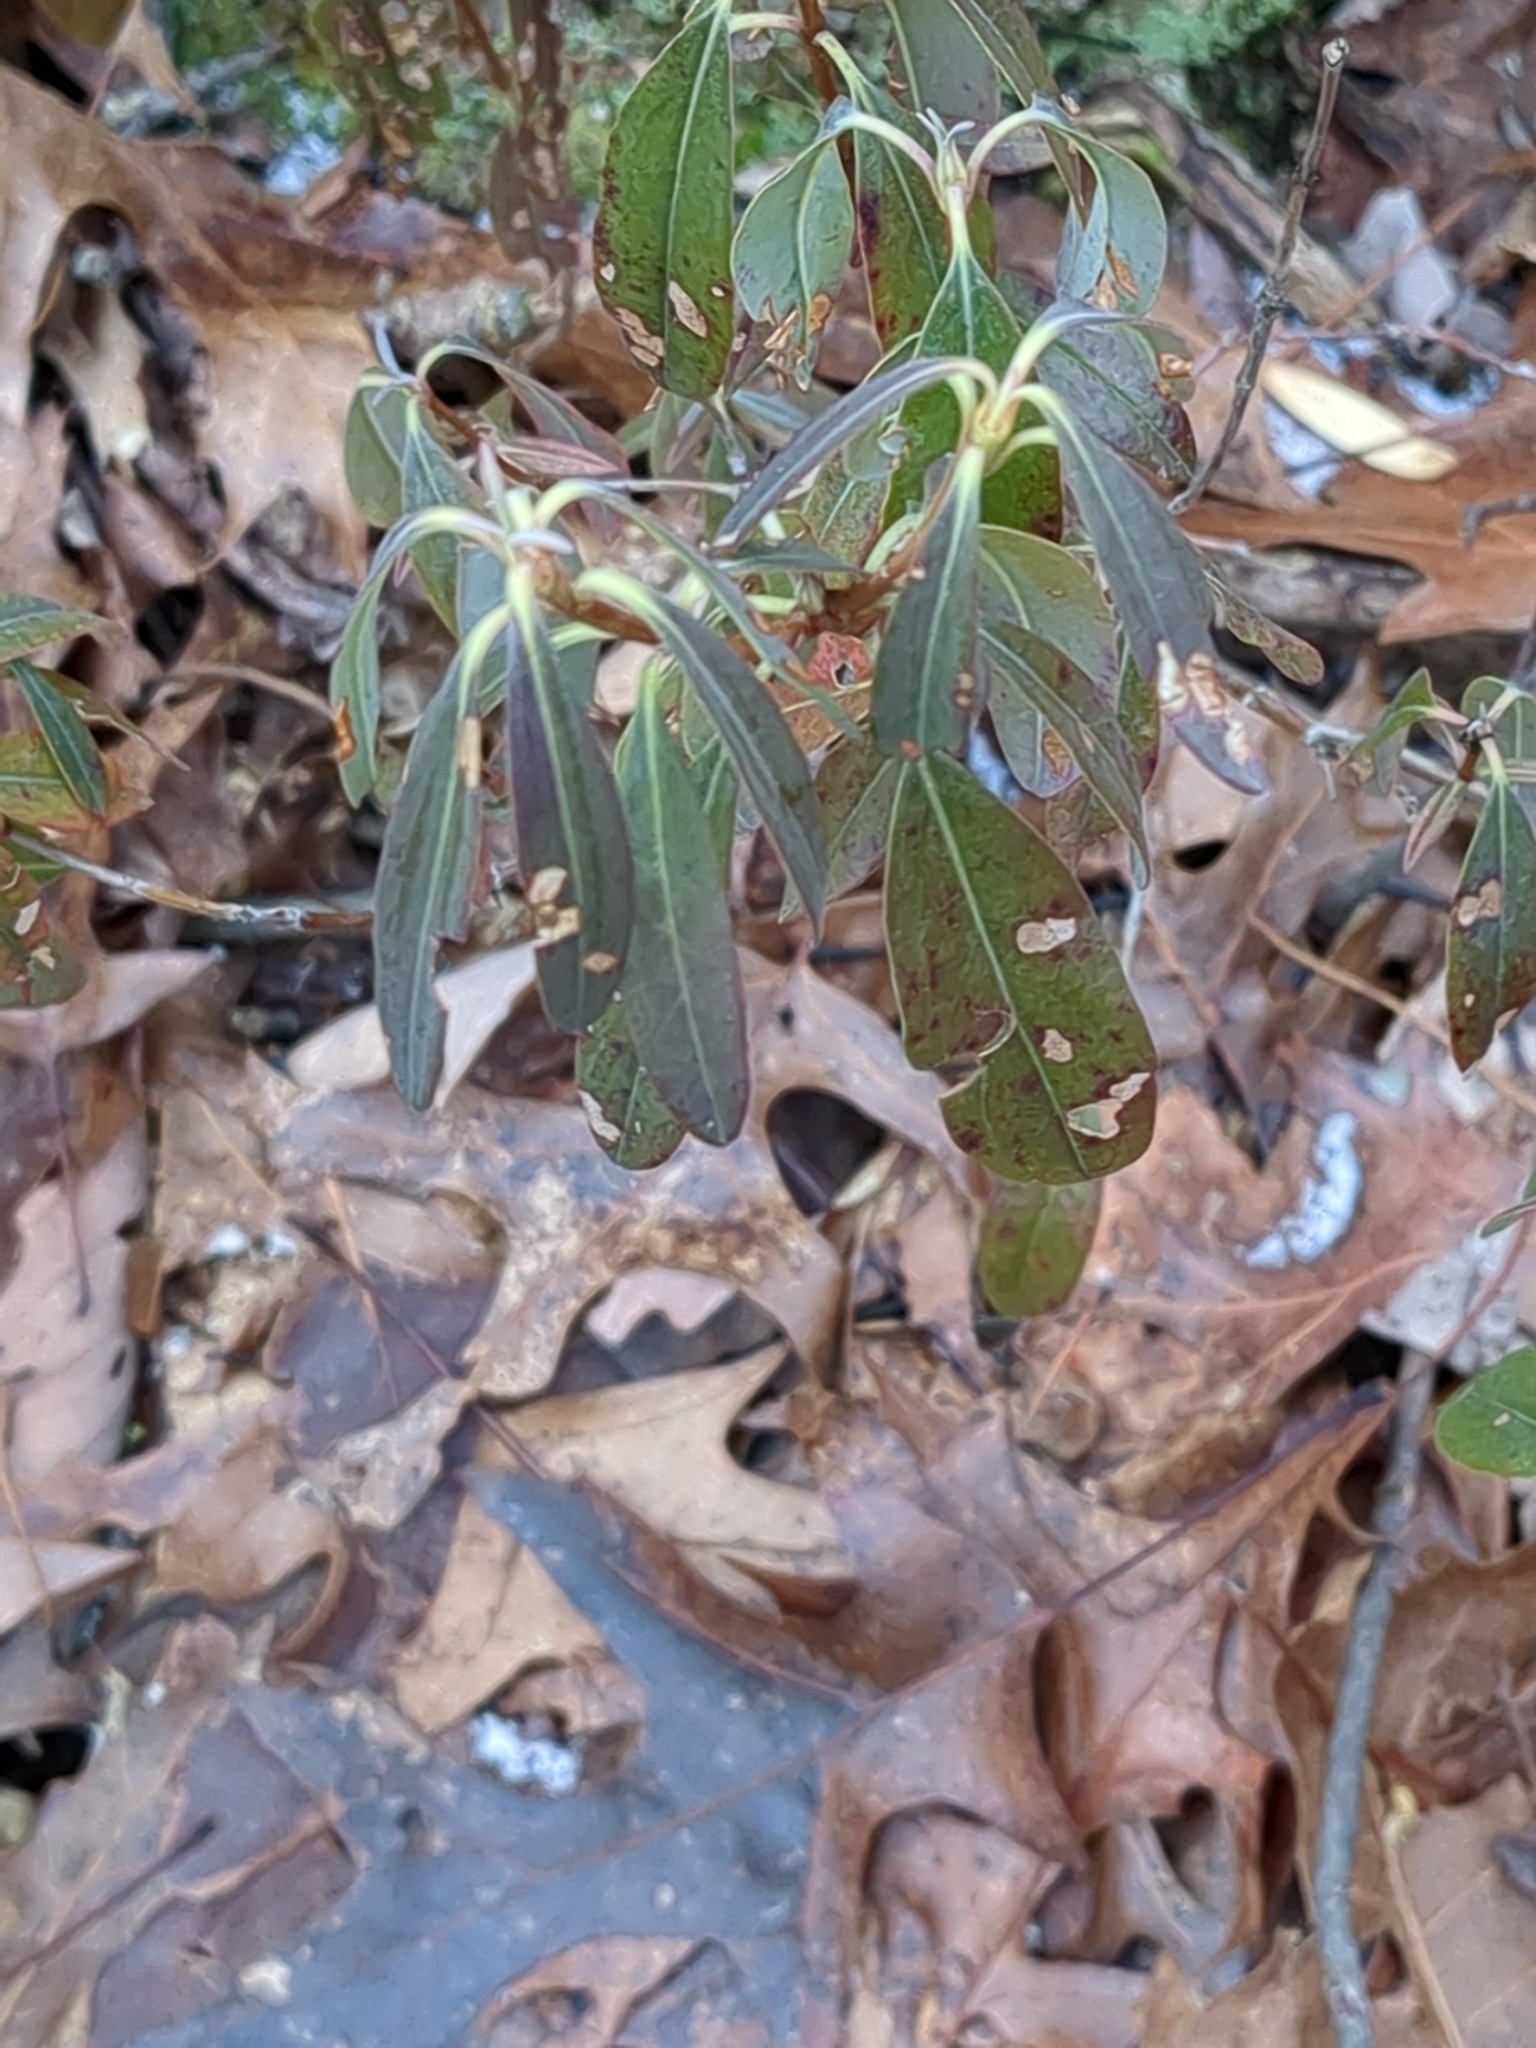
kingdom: Plantae
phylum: Tracheophyta
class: Magnoliopsida
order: Ericales
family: Ericaceae
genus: Kalmia
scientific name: Kalmia angustifolia
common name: Sheep-laurel
